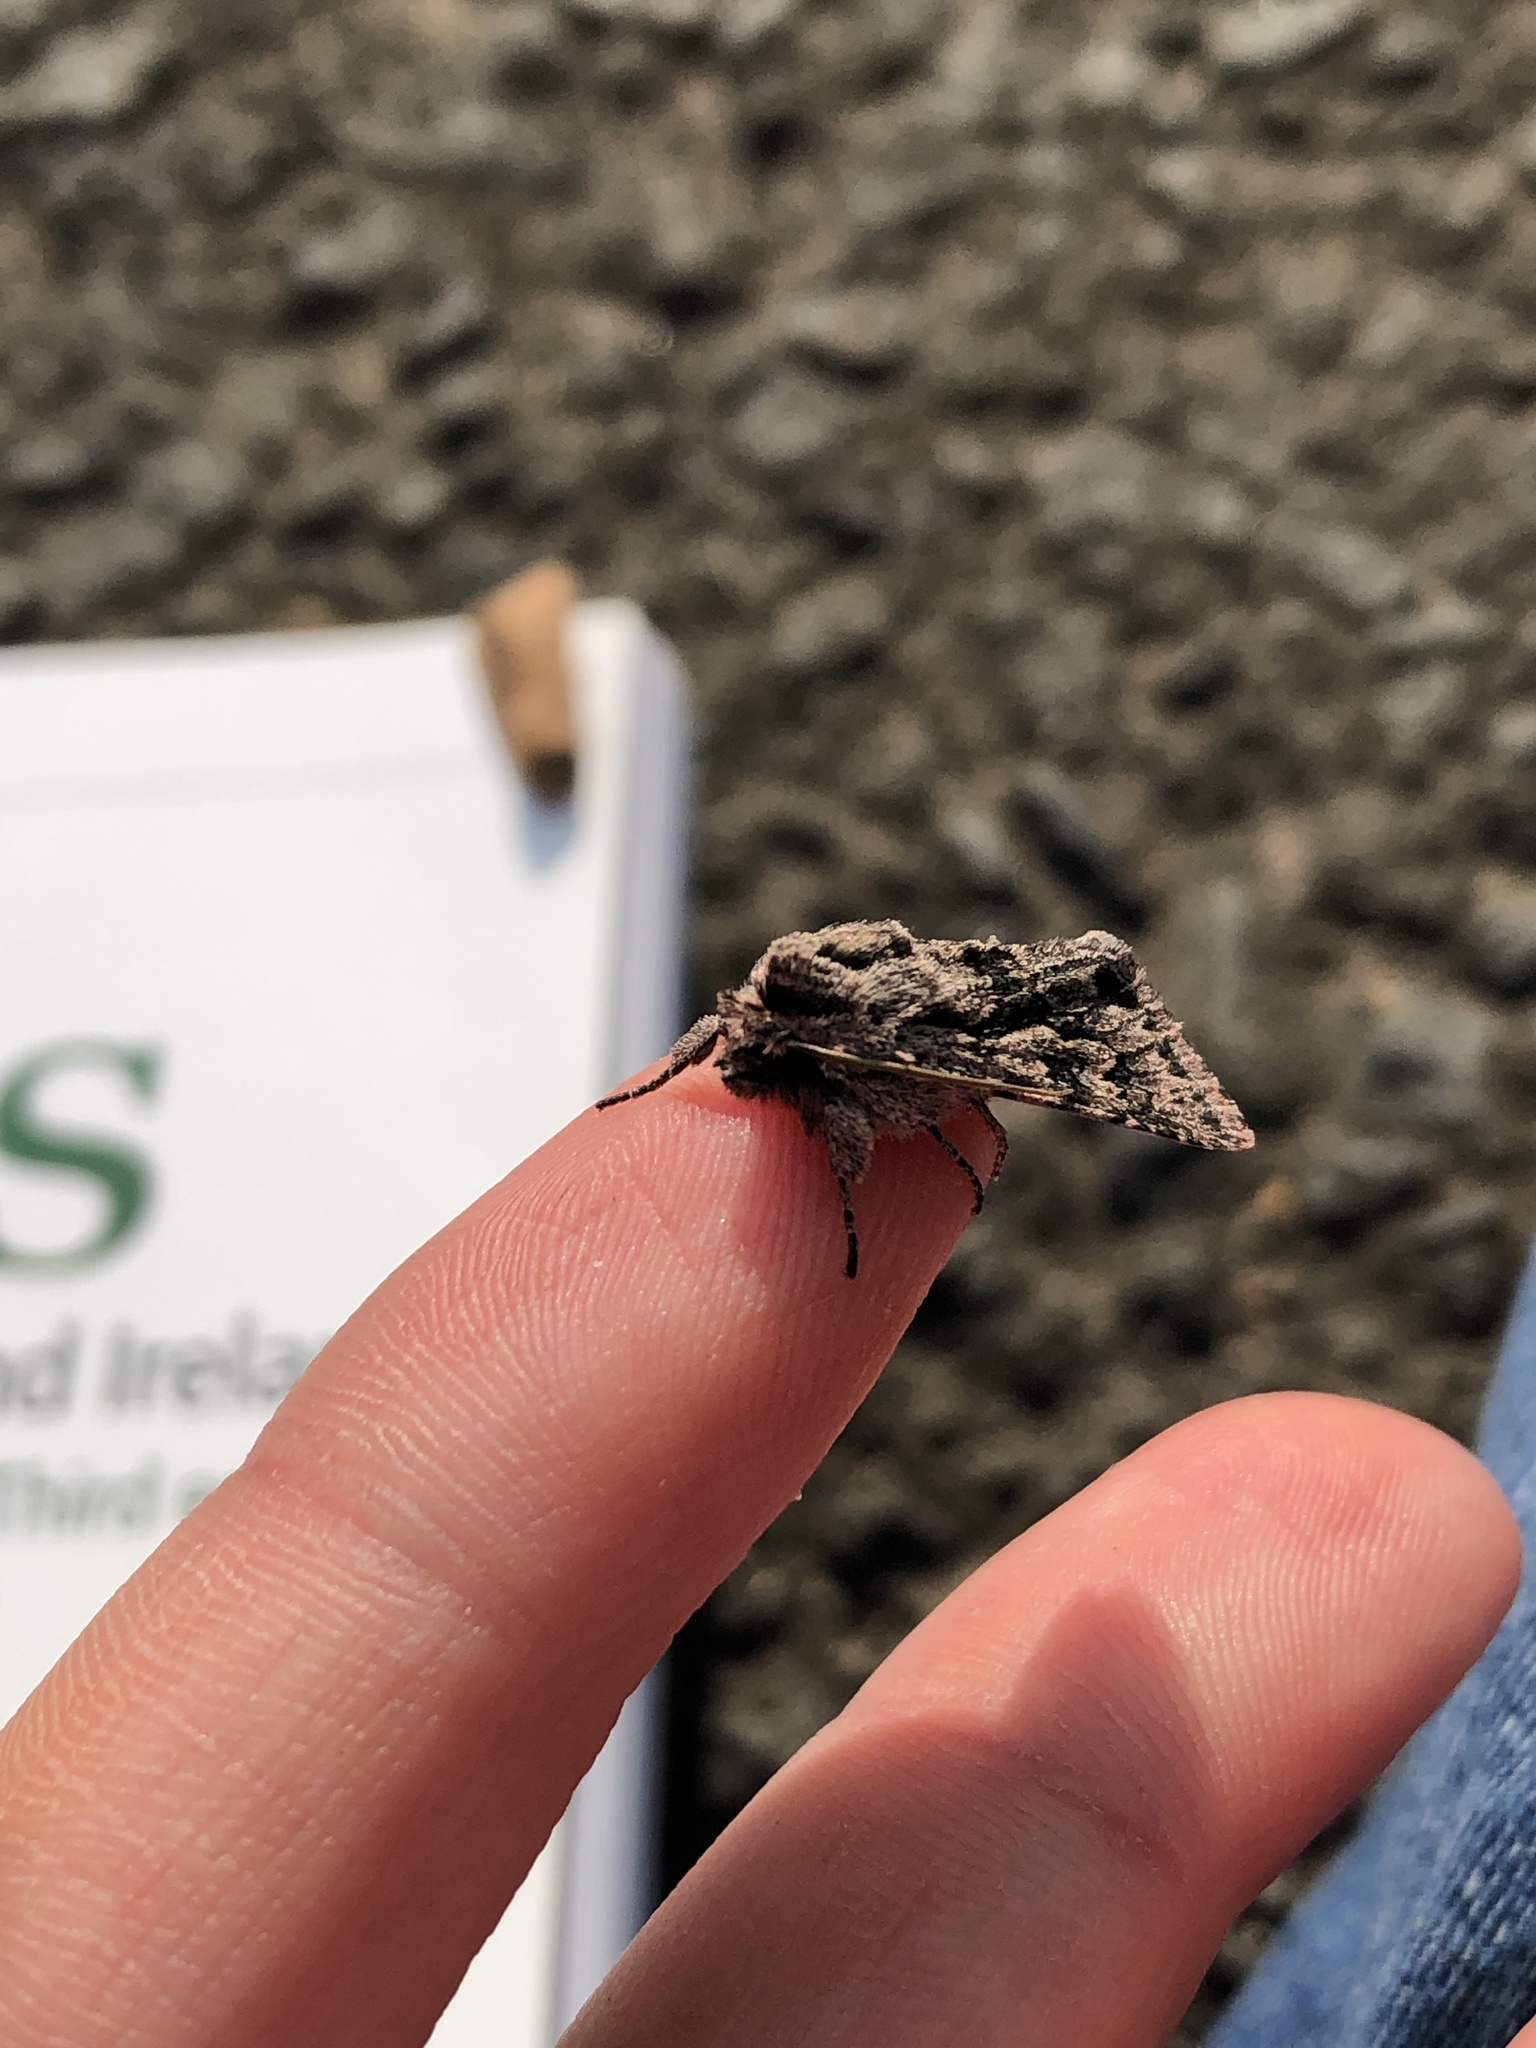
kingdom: Animalia
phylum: Arthropoda
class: Insecta
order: Lepidoptera
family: Noctuidae
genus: Xylocampa
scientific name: Xylocampa areola
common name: Early grey
